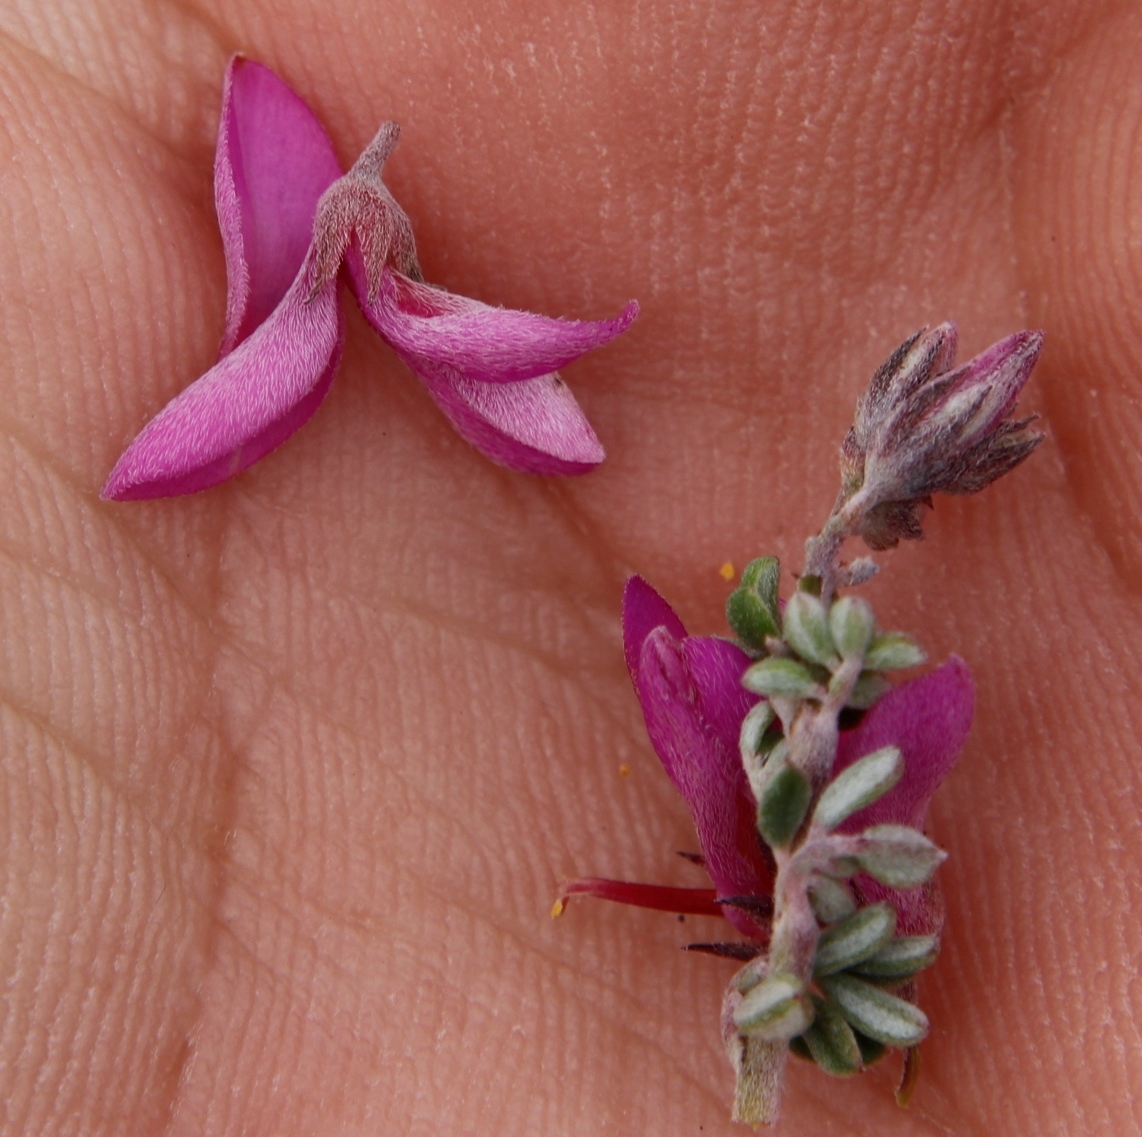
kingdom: Plantae
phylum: Tracheophyta
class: Magnoliopsida
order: Fabales
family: Fabaceae
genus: Indigofera
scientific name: Indigofera
